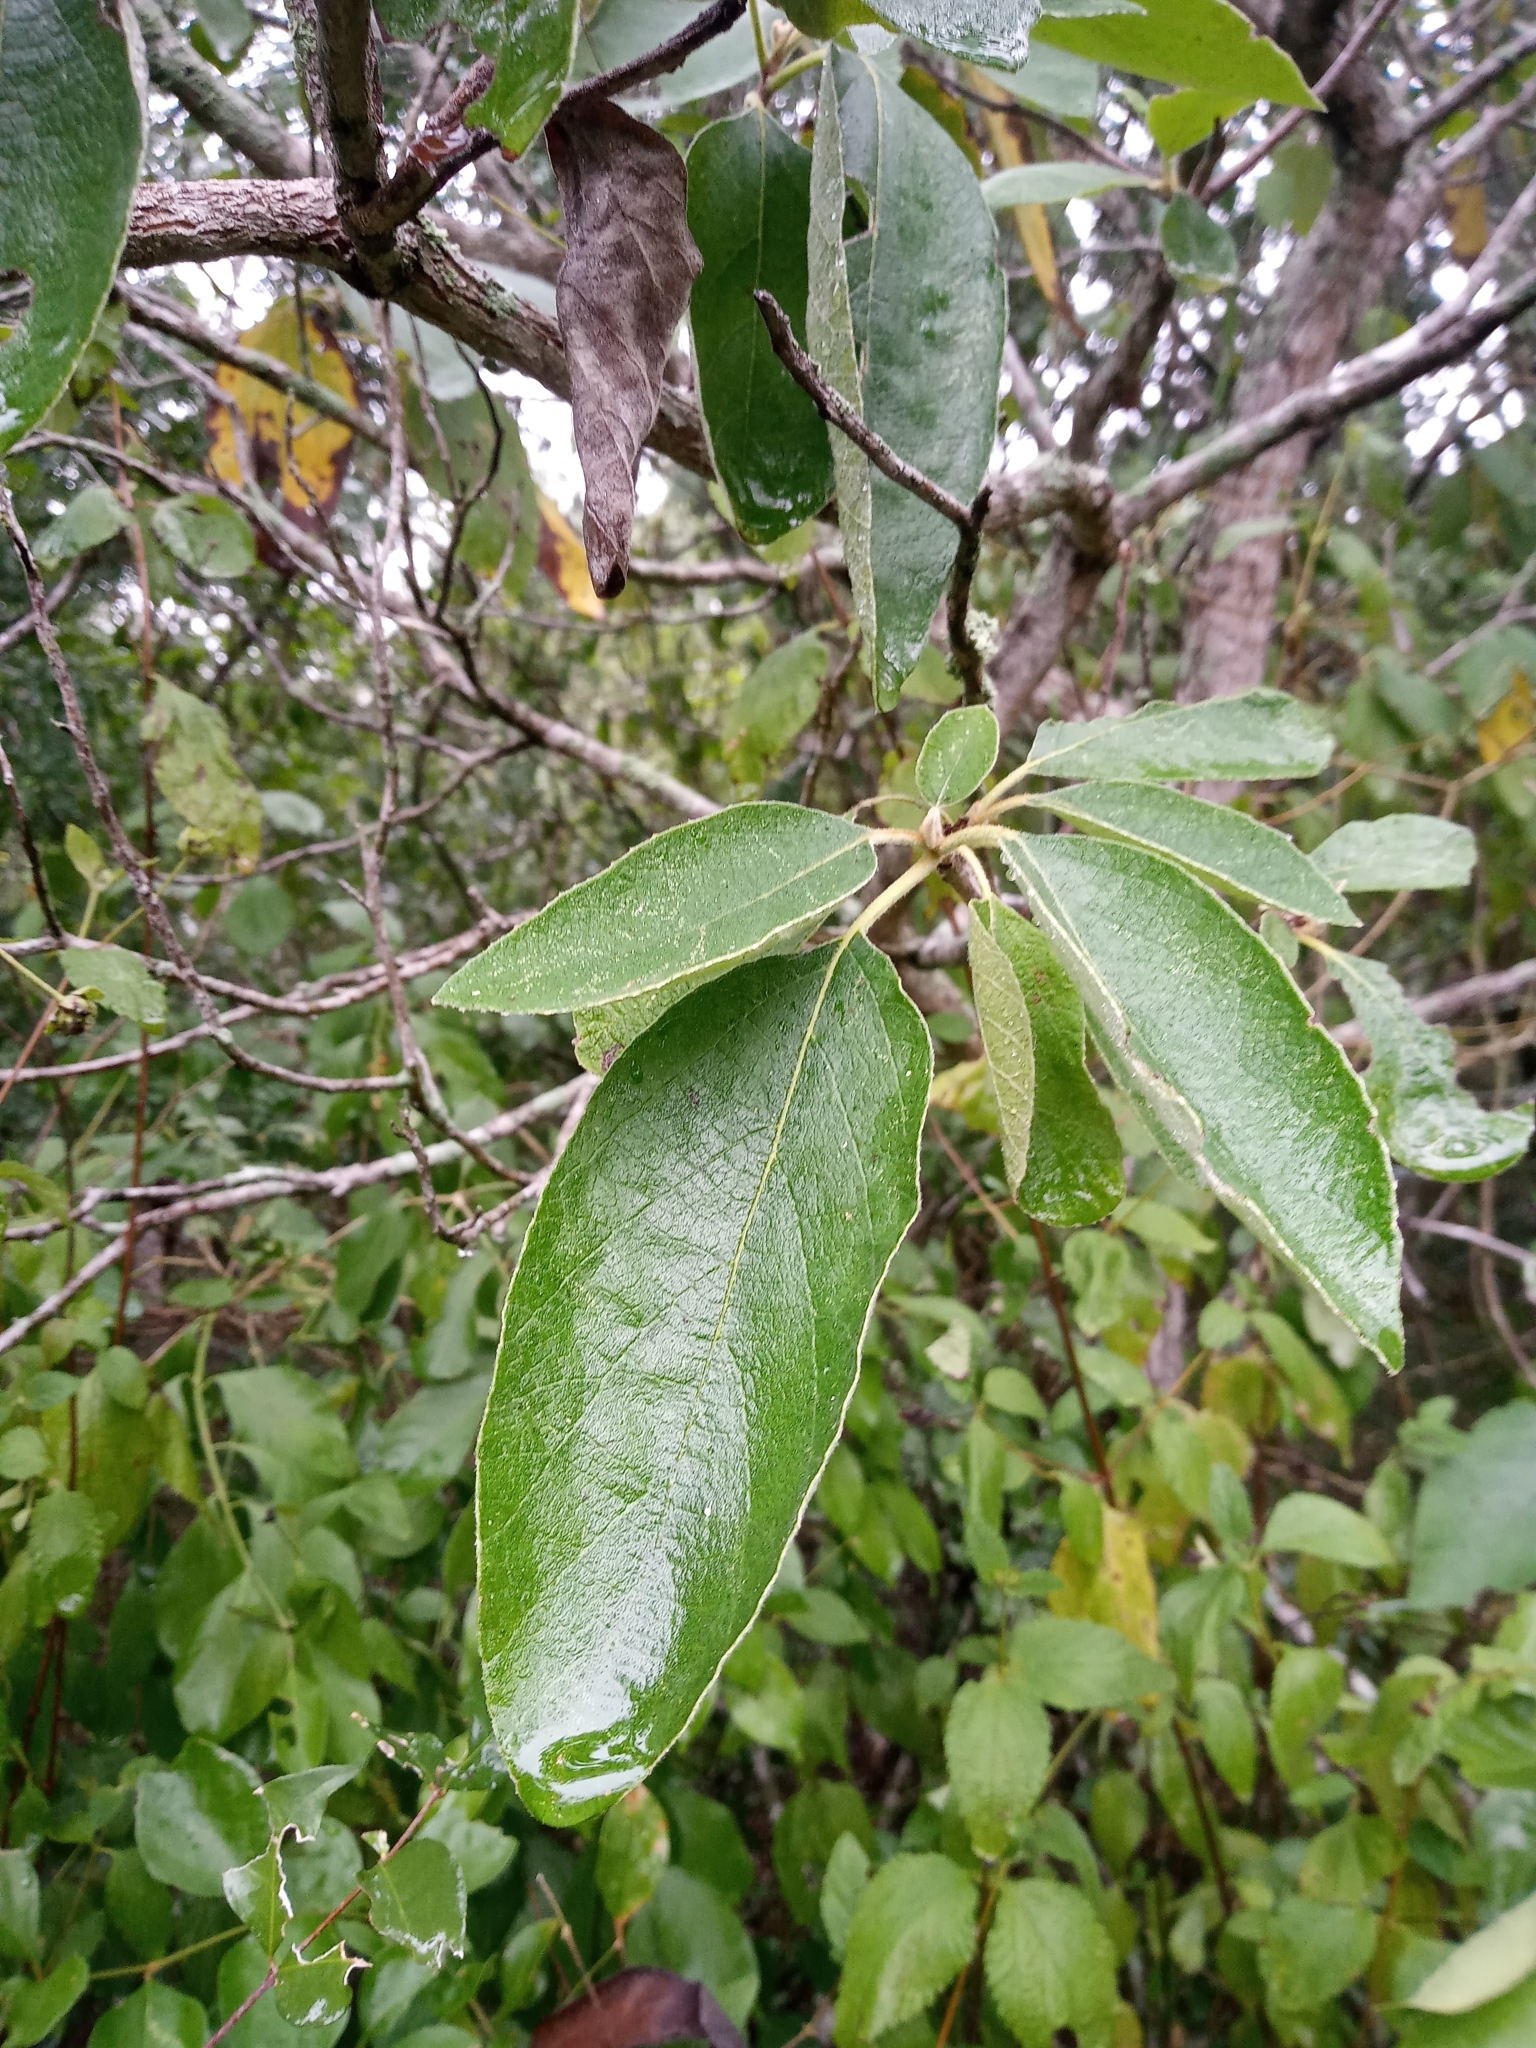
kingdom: Plantae
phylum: Tracheophyta
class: Magnoliopsida
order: Boraginales
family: Cordiaceae
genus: Cordia
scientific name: Cordia boissieri
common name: Mexican-olive
